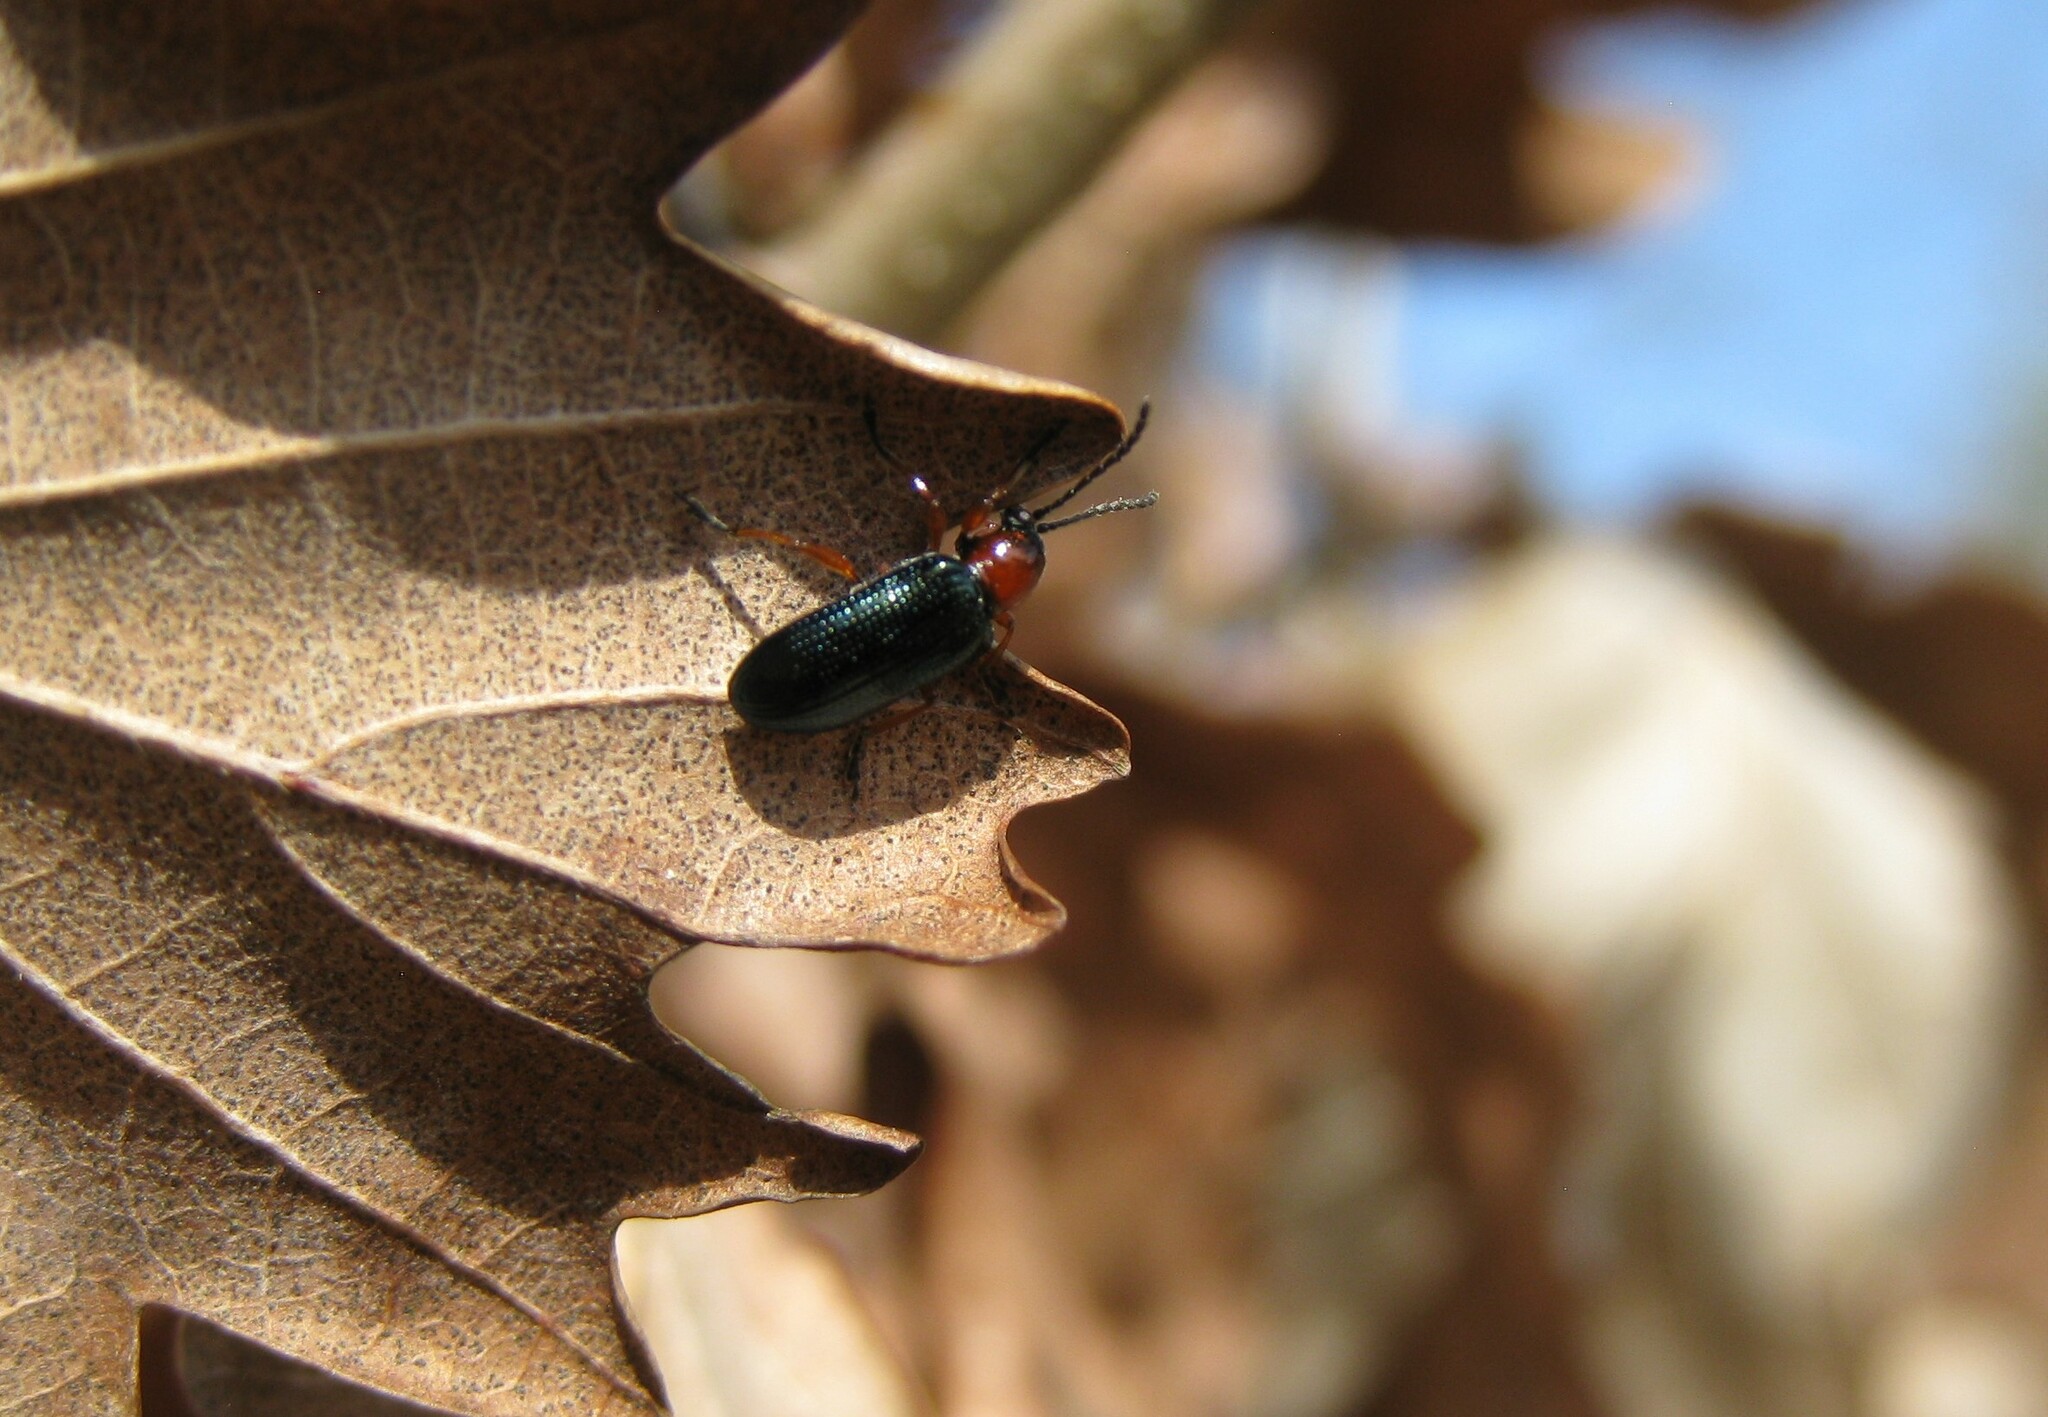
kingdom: Animalia
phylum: Arthropoda
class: Insecta
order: Coleoptera
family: Chrysomelidae
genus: Oulema
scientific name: Oulema
